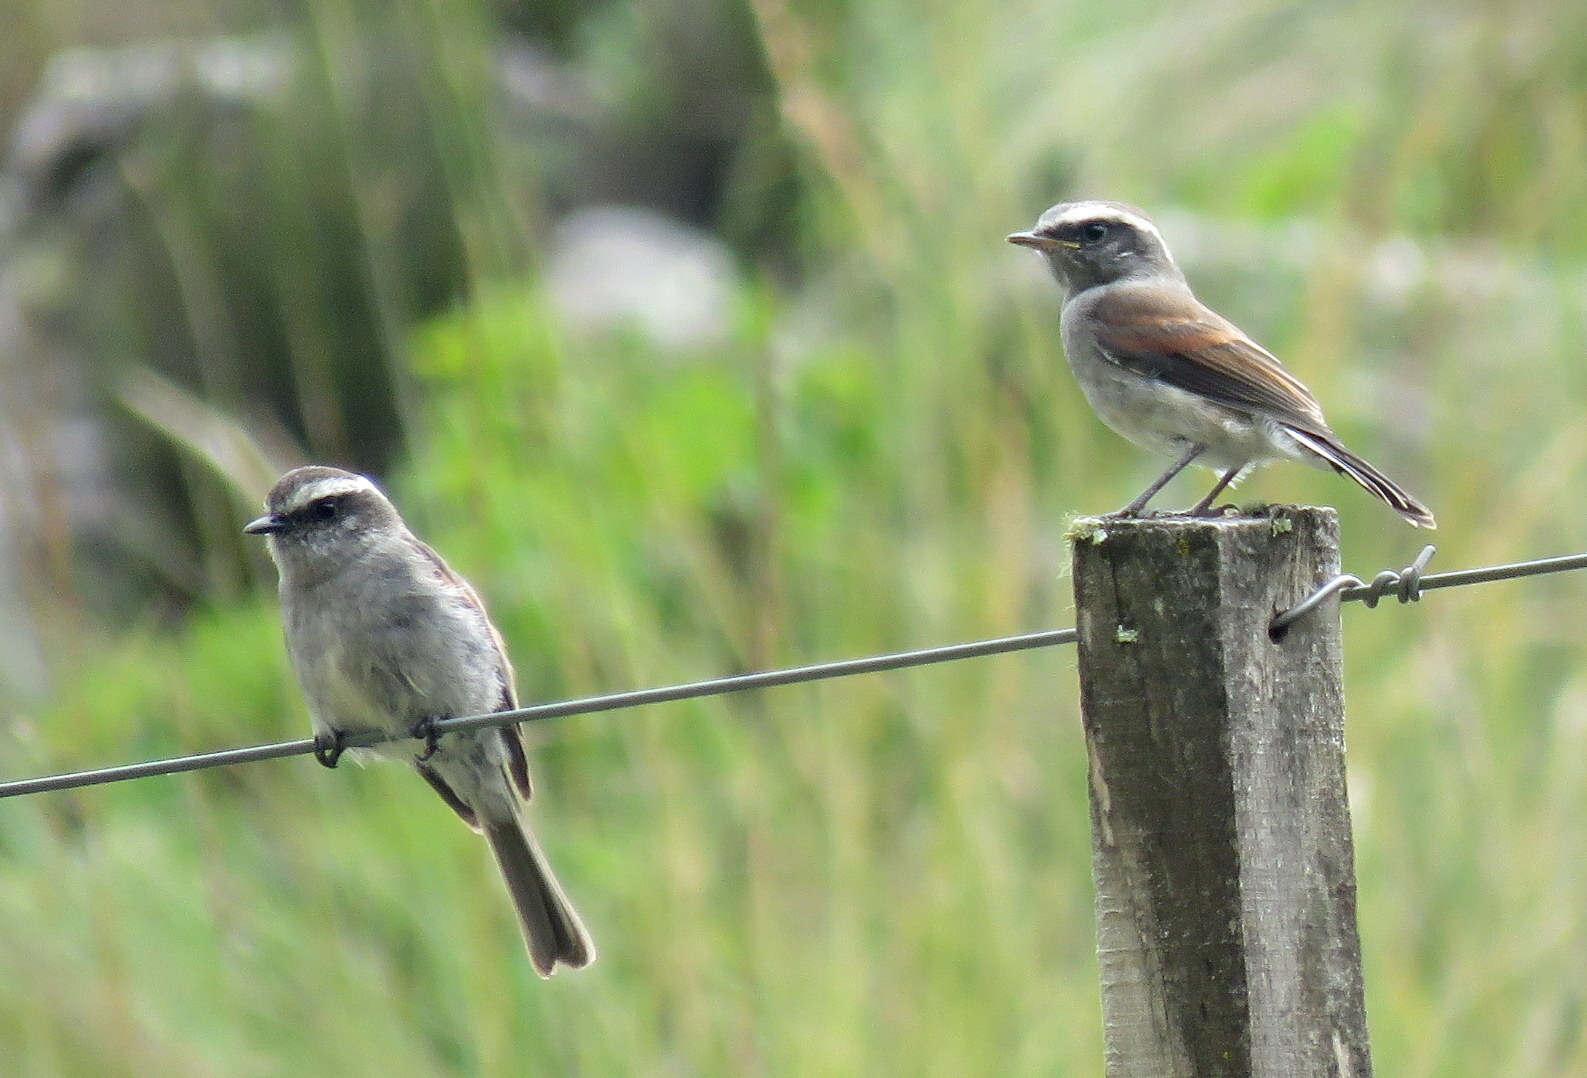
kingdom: Animalia
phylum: Chordata
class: Aves
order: Passeriformes
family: Tyrannidae
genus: Ochthoeca
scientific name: Ochthoeca leucophrys
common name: White-browed chat-tyrant
